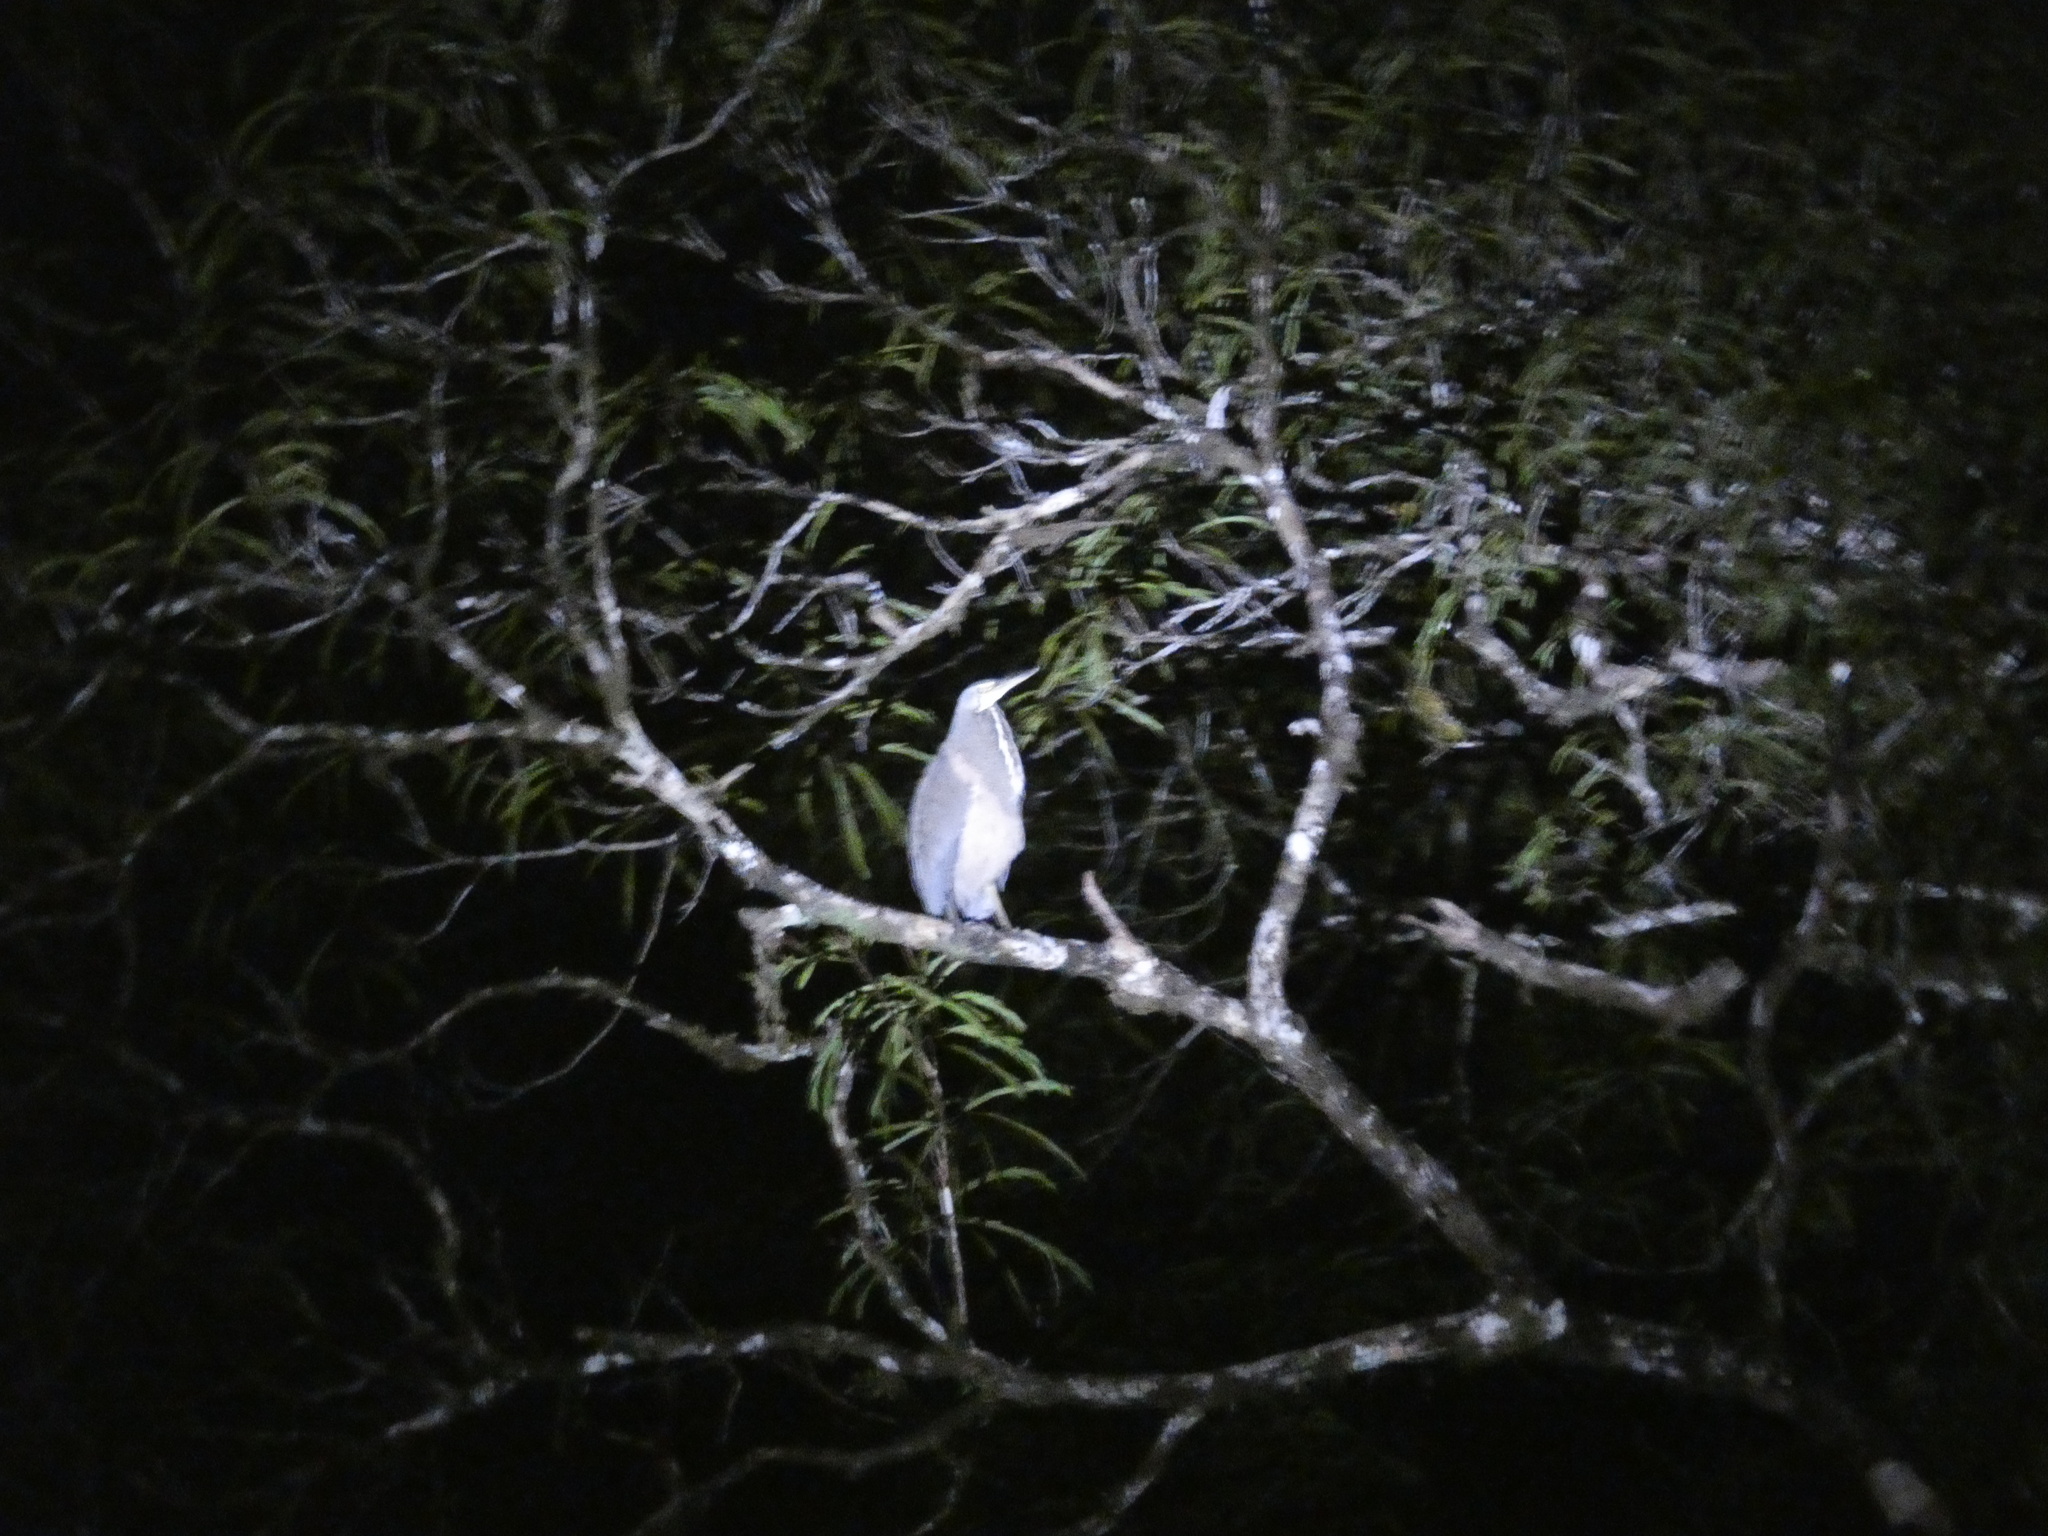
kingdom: Animalia
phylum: Chordata
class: Aves
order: Pelecaniformes
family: Ardeidae
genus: Tigrisoma
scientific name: Tigrisoma mexicanum
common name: Bare-throated tiger-heron
